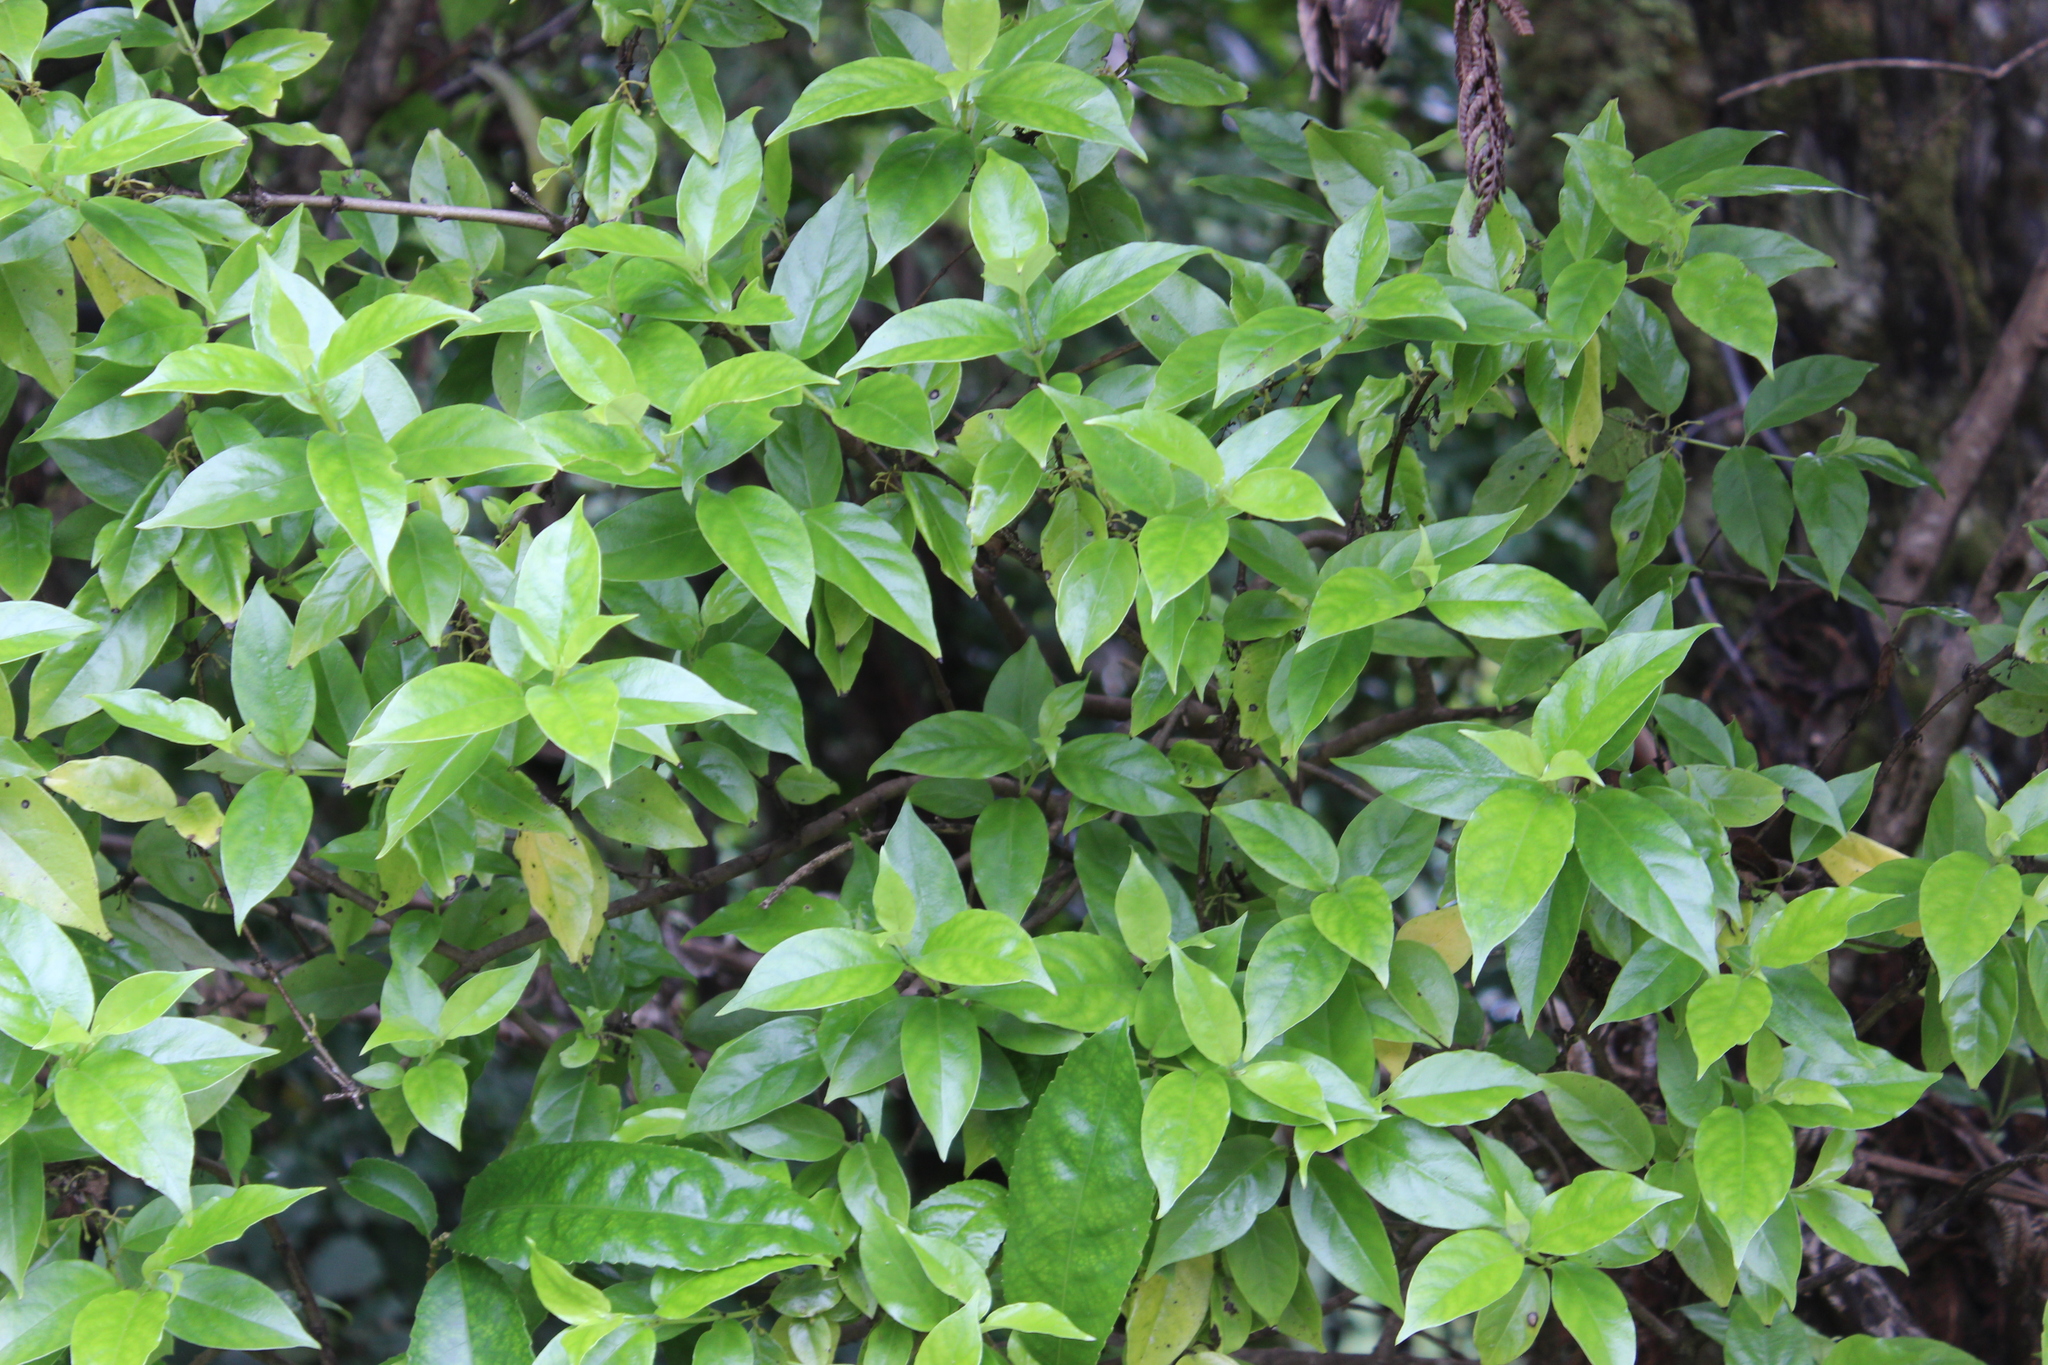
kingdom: Plantae
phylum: Tracheophyta
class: Magnoliopsida
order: Gentianales
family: Loganiaceae
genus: Geniostoma
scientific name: Geniostoma ligustrifolium
